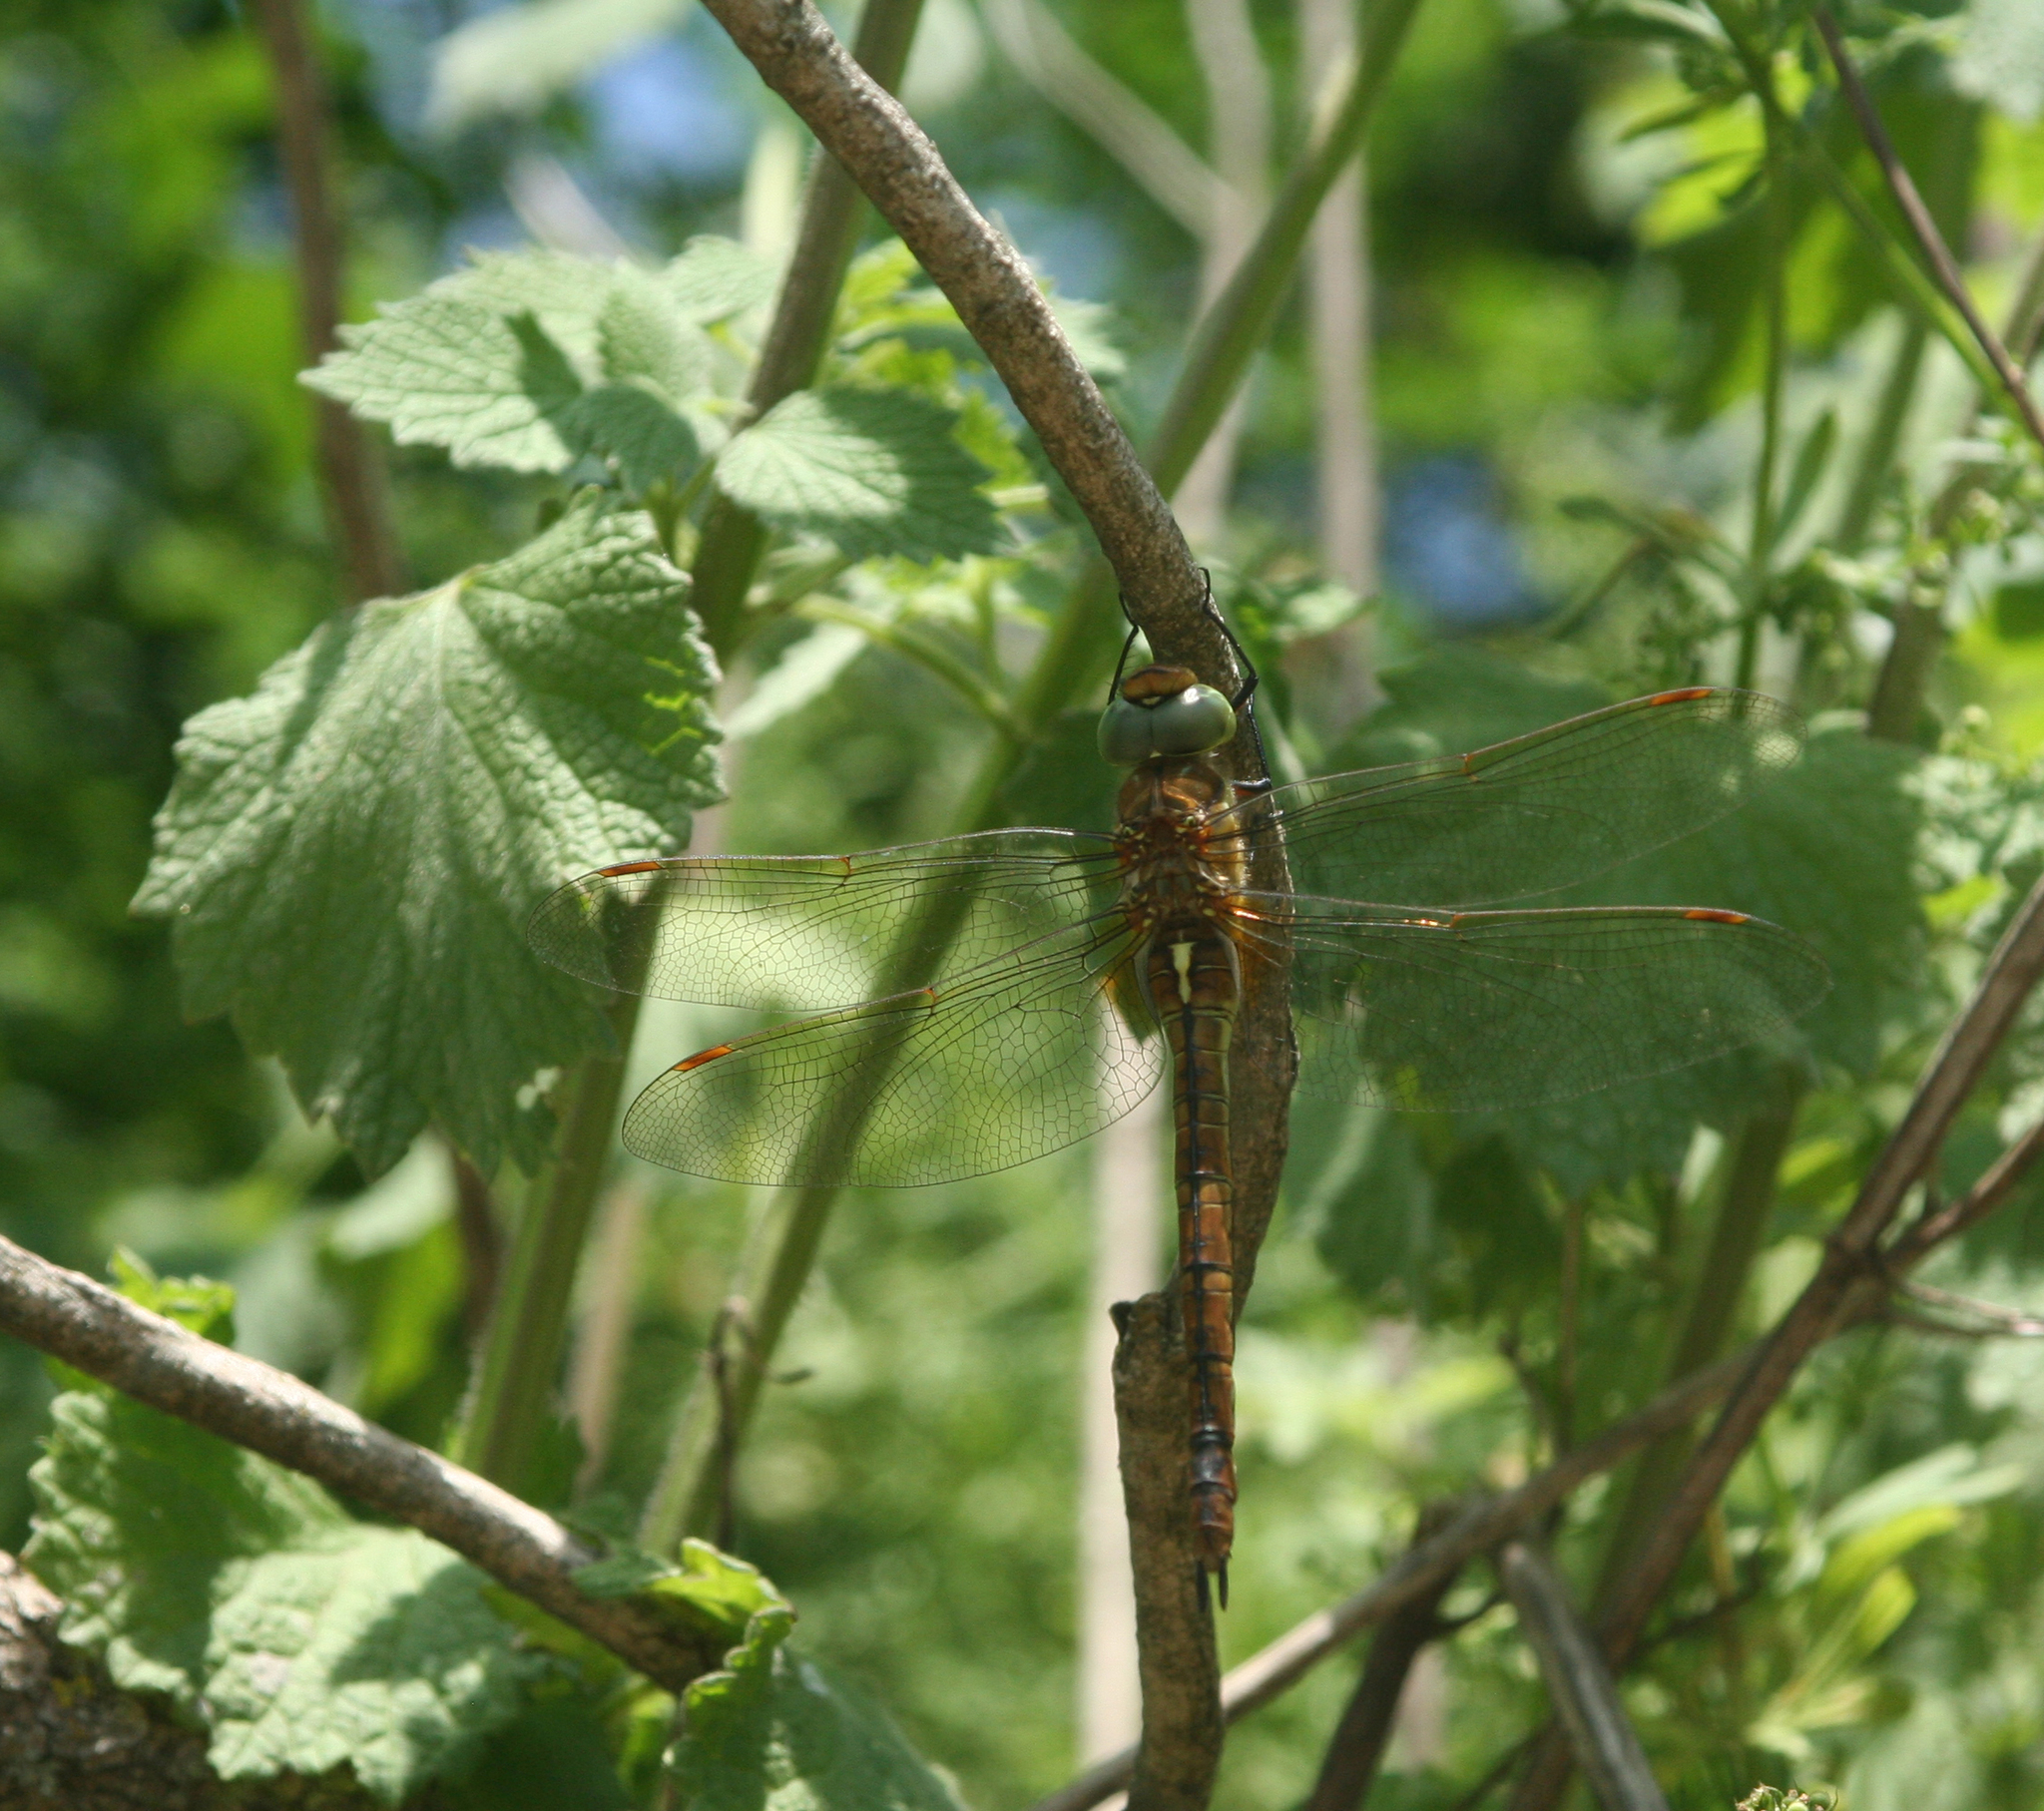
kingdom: Animalia
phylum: Arthropoda
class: Insecta
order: Odonata
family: Aeshnidae
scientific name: Aeshnidae
